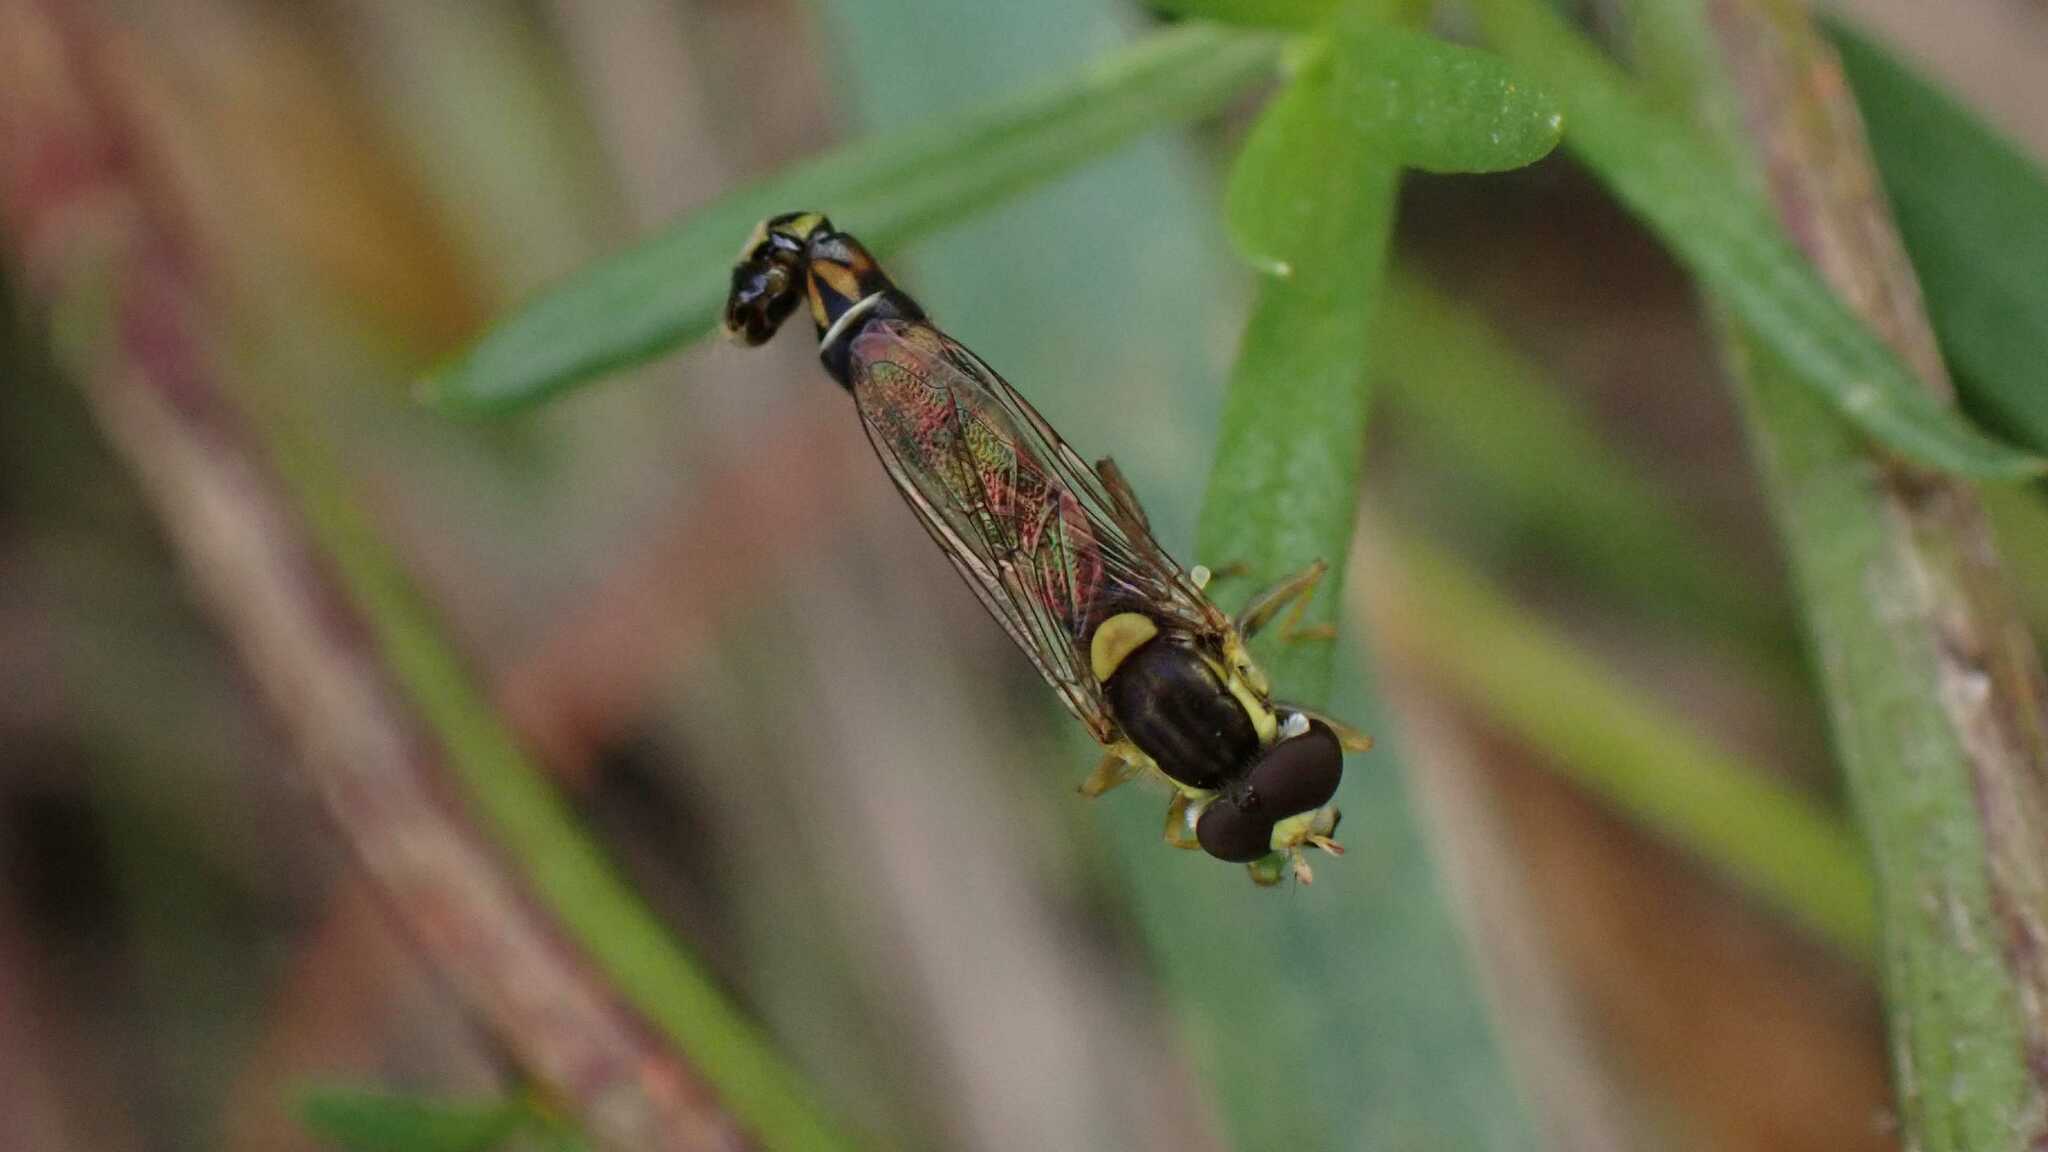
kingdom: Animalia
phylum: Arthropoda
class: Insecta
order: Diptera
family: Syrphidae
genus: Sphaerophoria
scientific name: Sphaerophoria scripta
